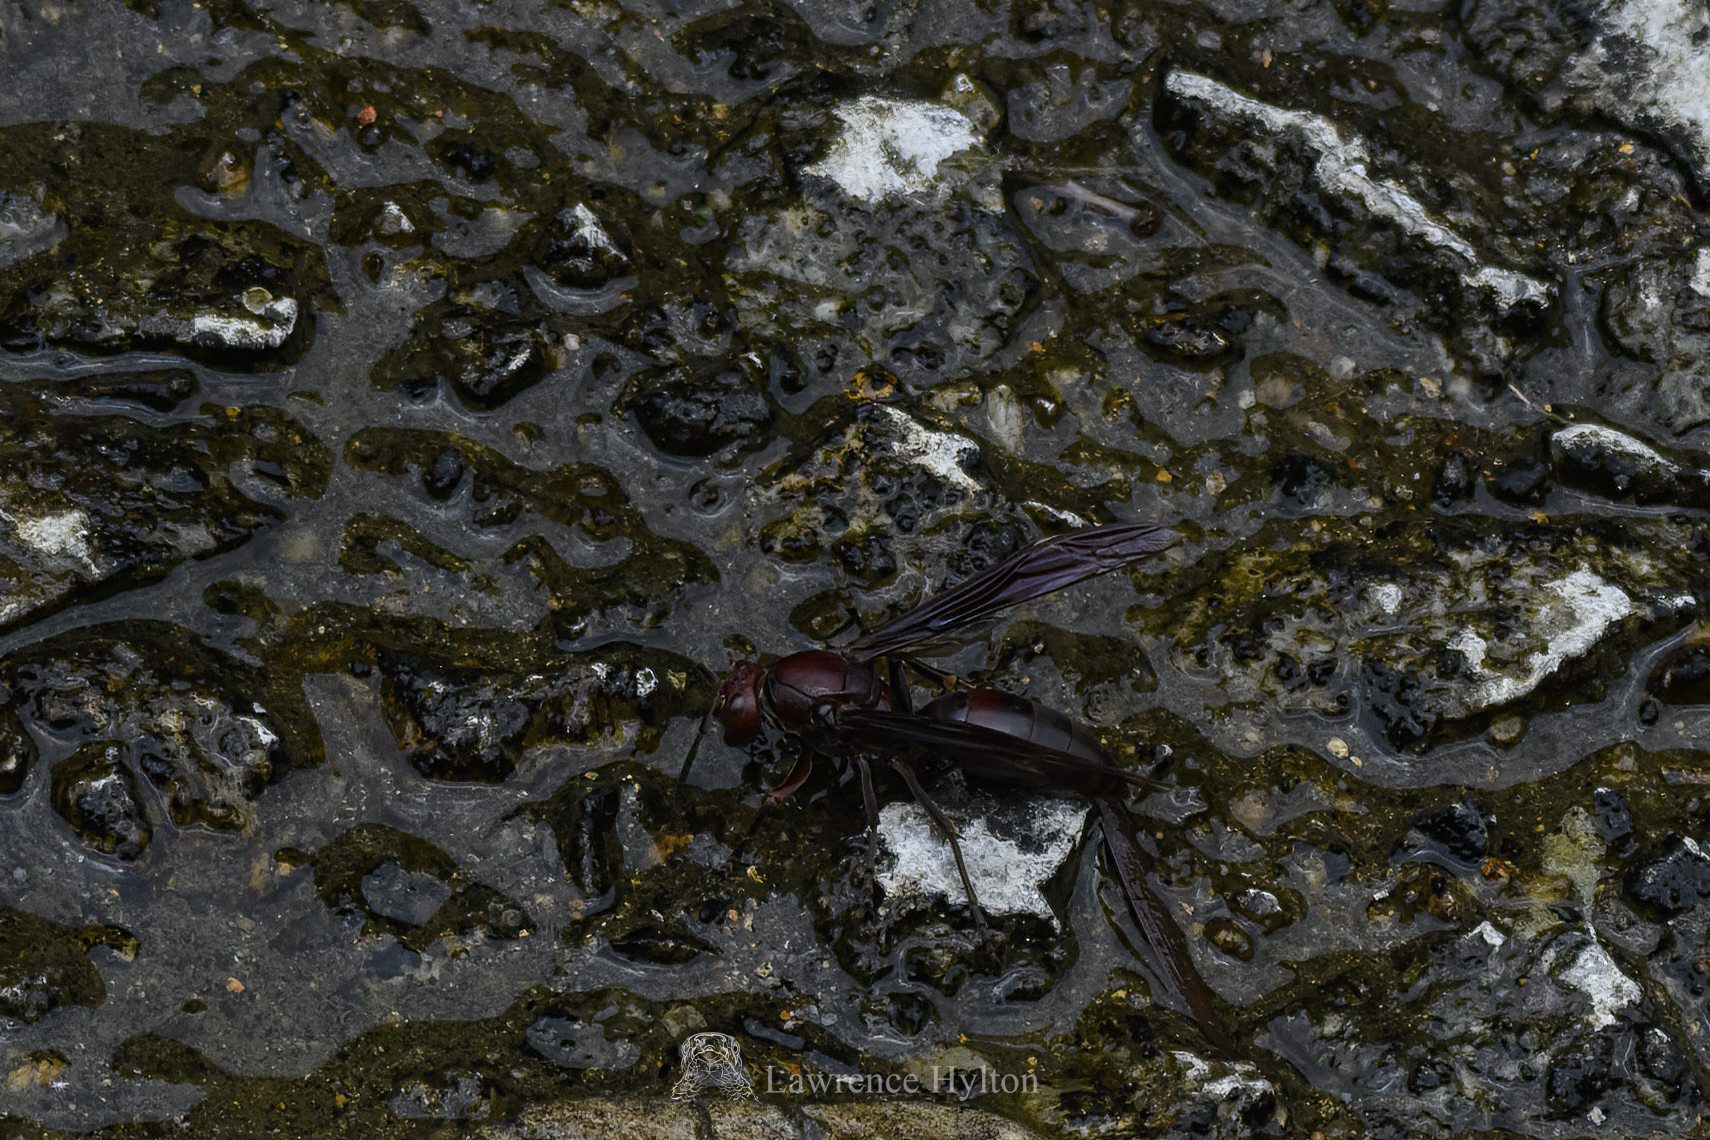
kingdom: Animalia
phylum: Arthropoda
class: Insecta
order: Hymenoptera
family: Eumenidae
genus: Polistes
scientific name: Polistes gigas
